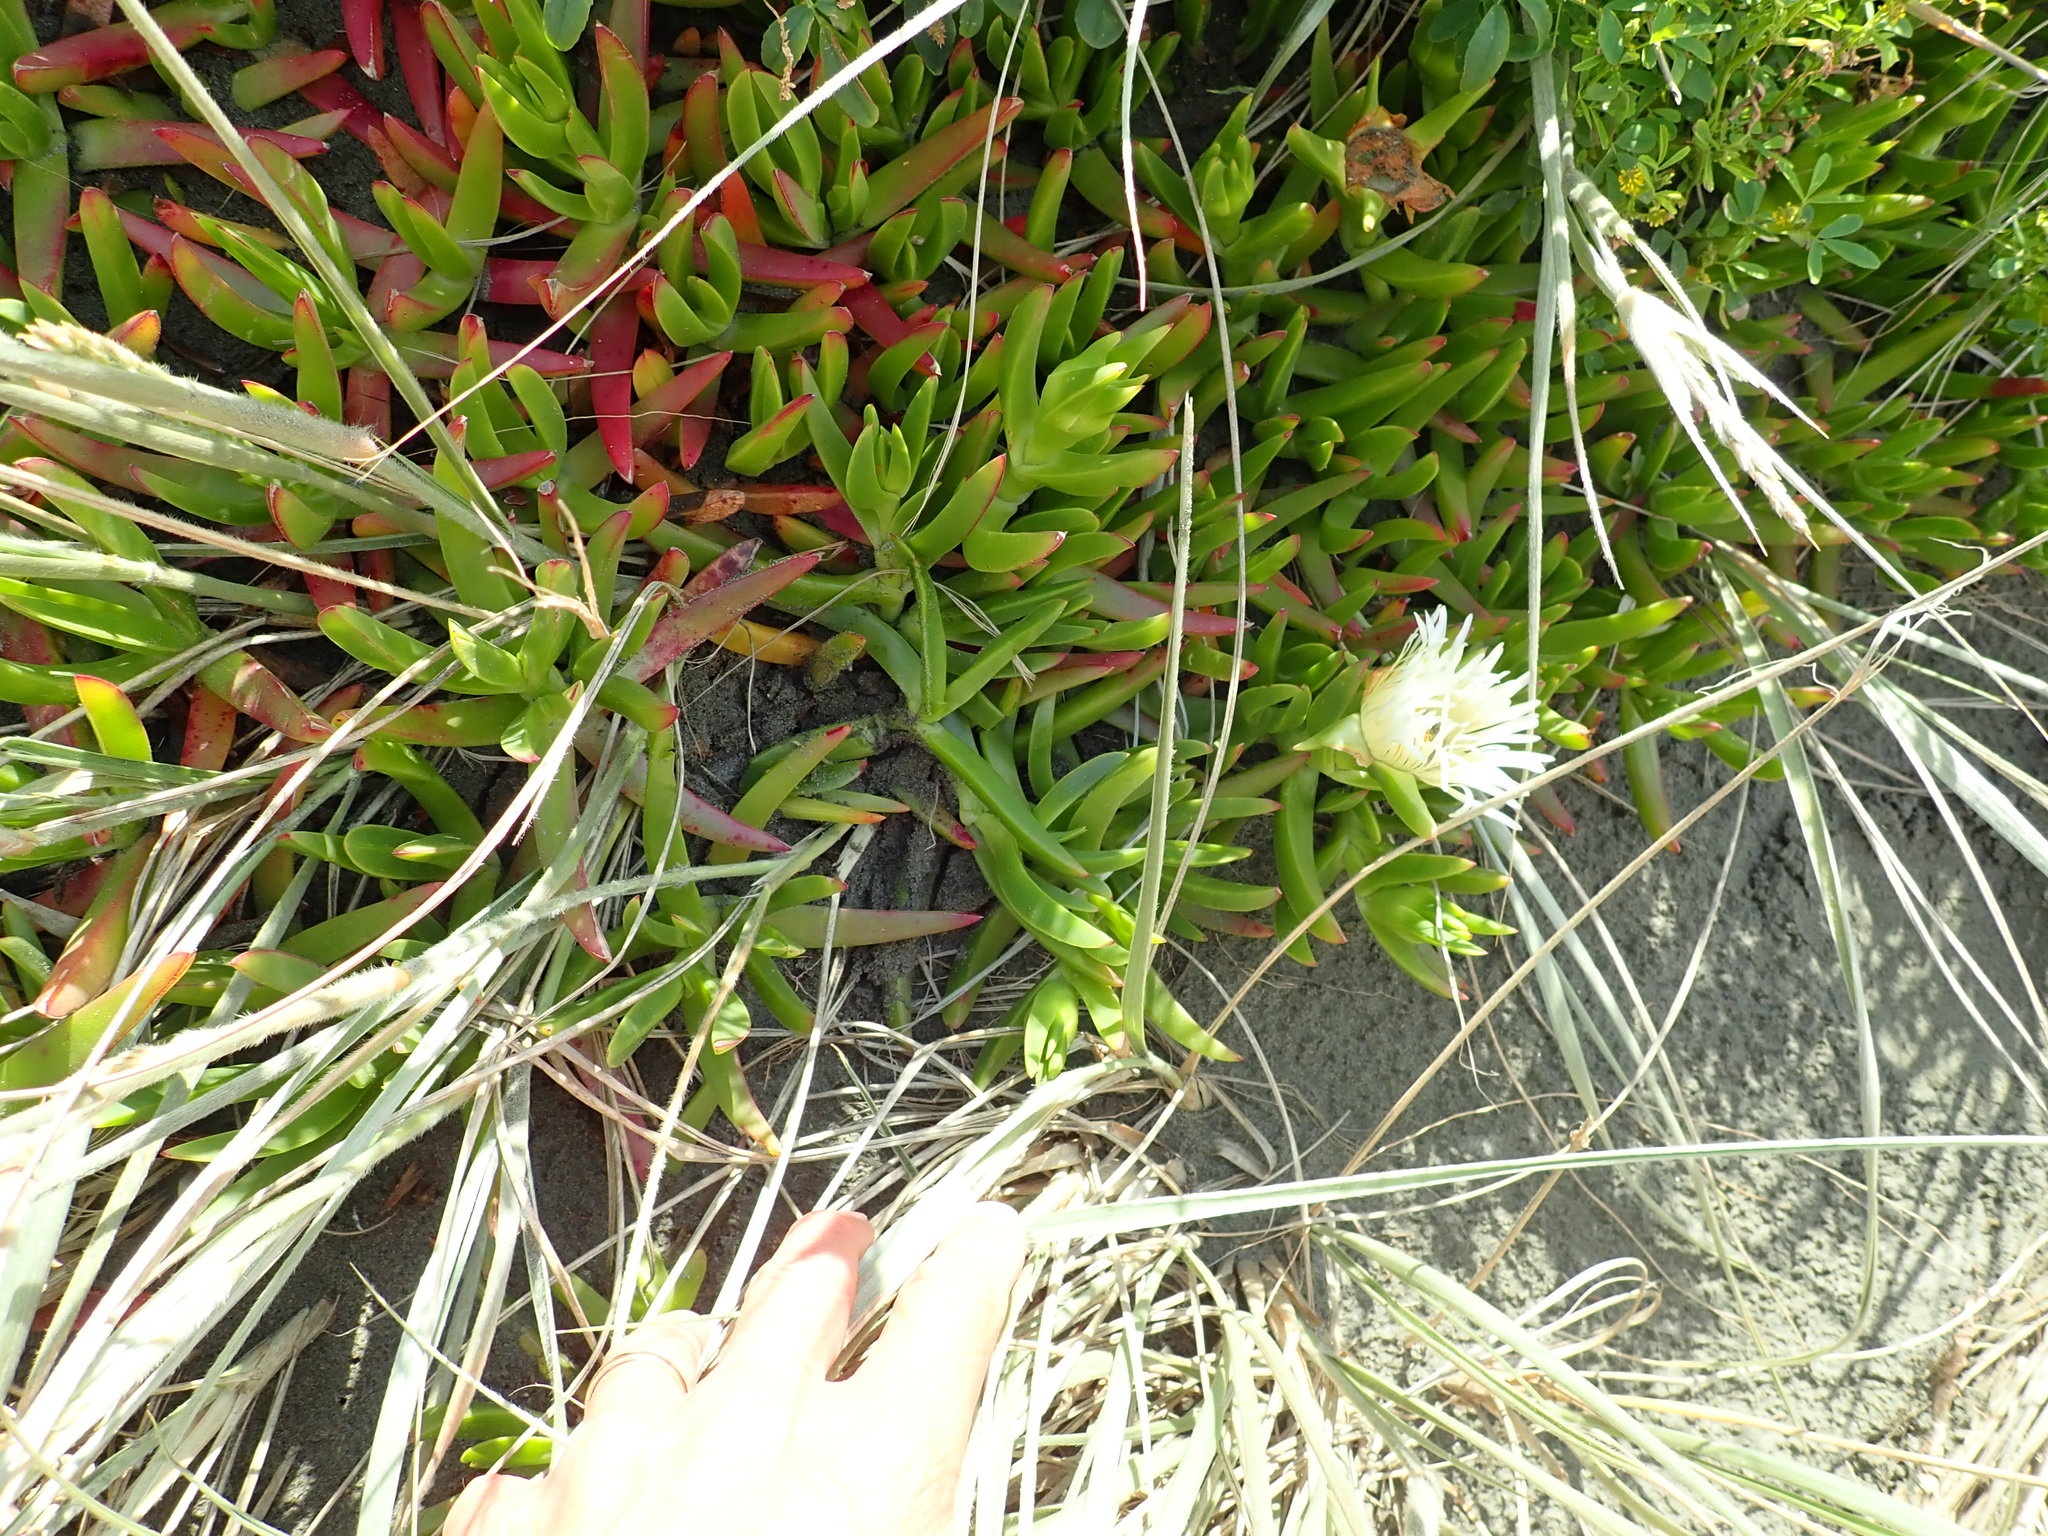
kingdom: Plantae
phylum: Tracheophyta
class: Magnoliopsida
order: Caryophyllales
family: Aizoaceae
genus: Carpobrotus
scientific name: Carpobrotus edulis
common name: Hottentot-fig
